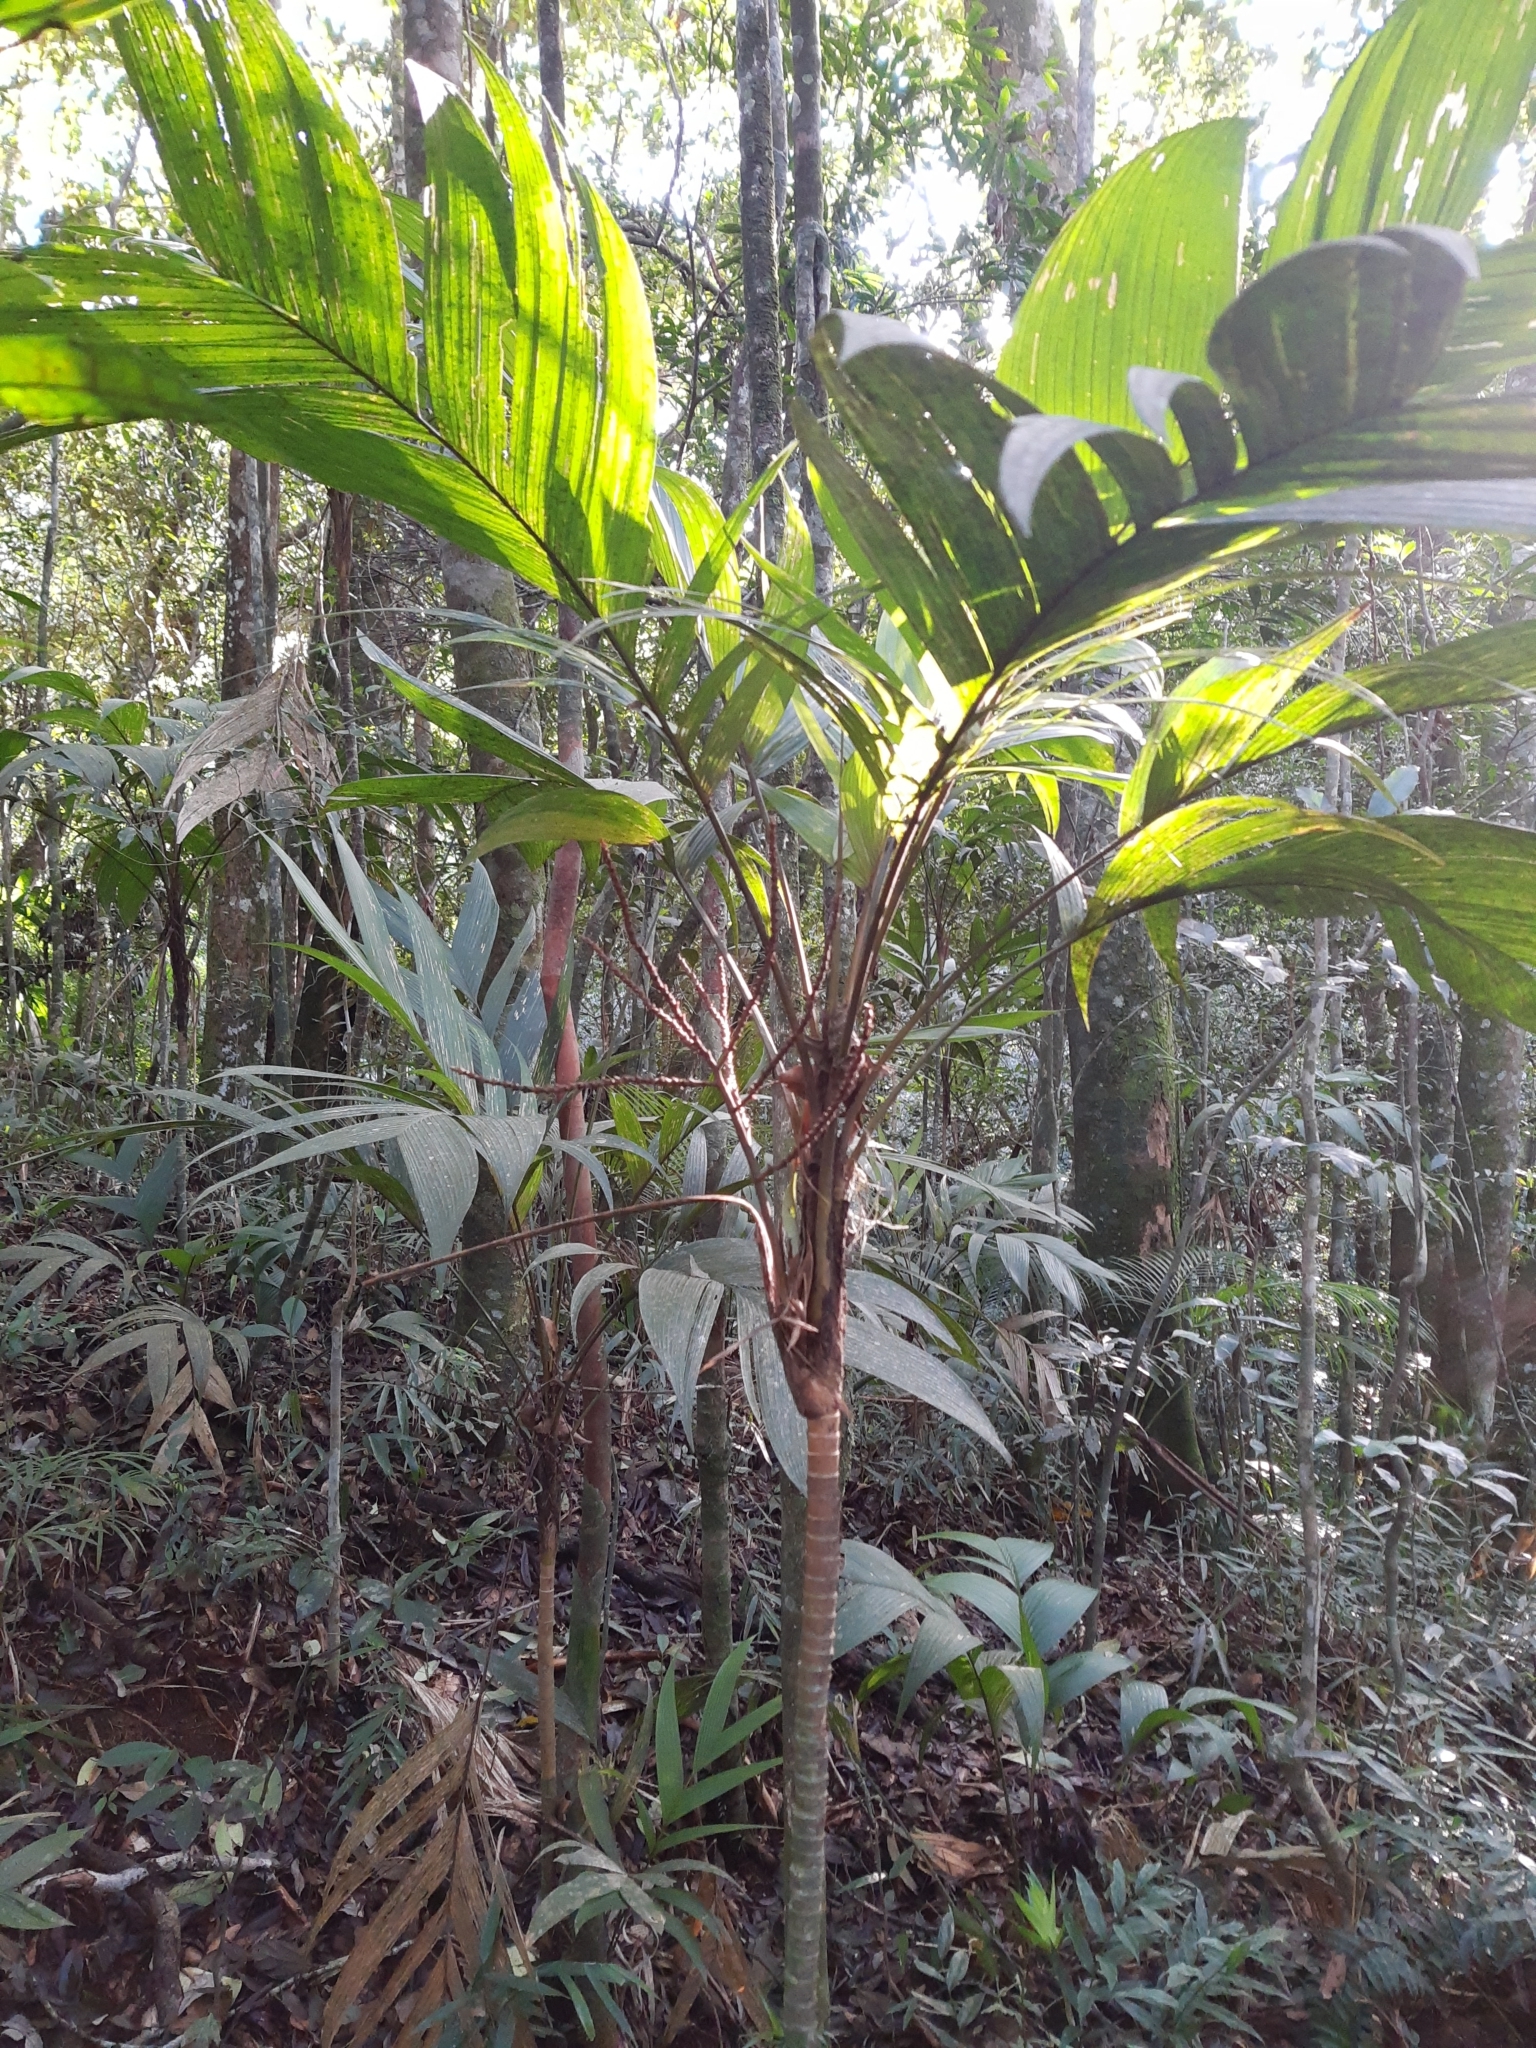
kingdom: Plantae
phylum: Tracheophyta
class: Liliopsida
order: Arecales
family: Arecaceae
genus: Geonoma
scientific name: Geonoma elegans
